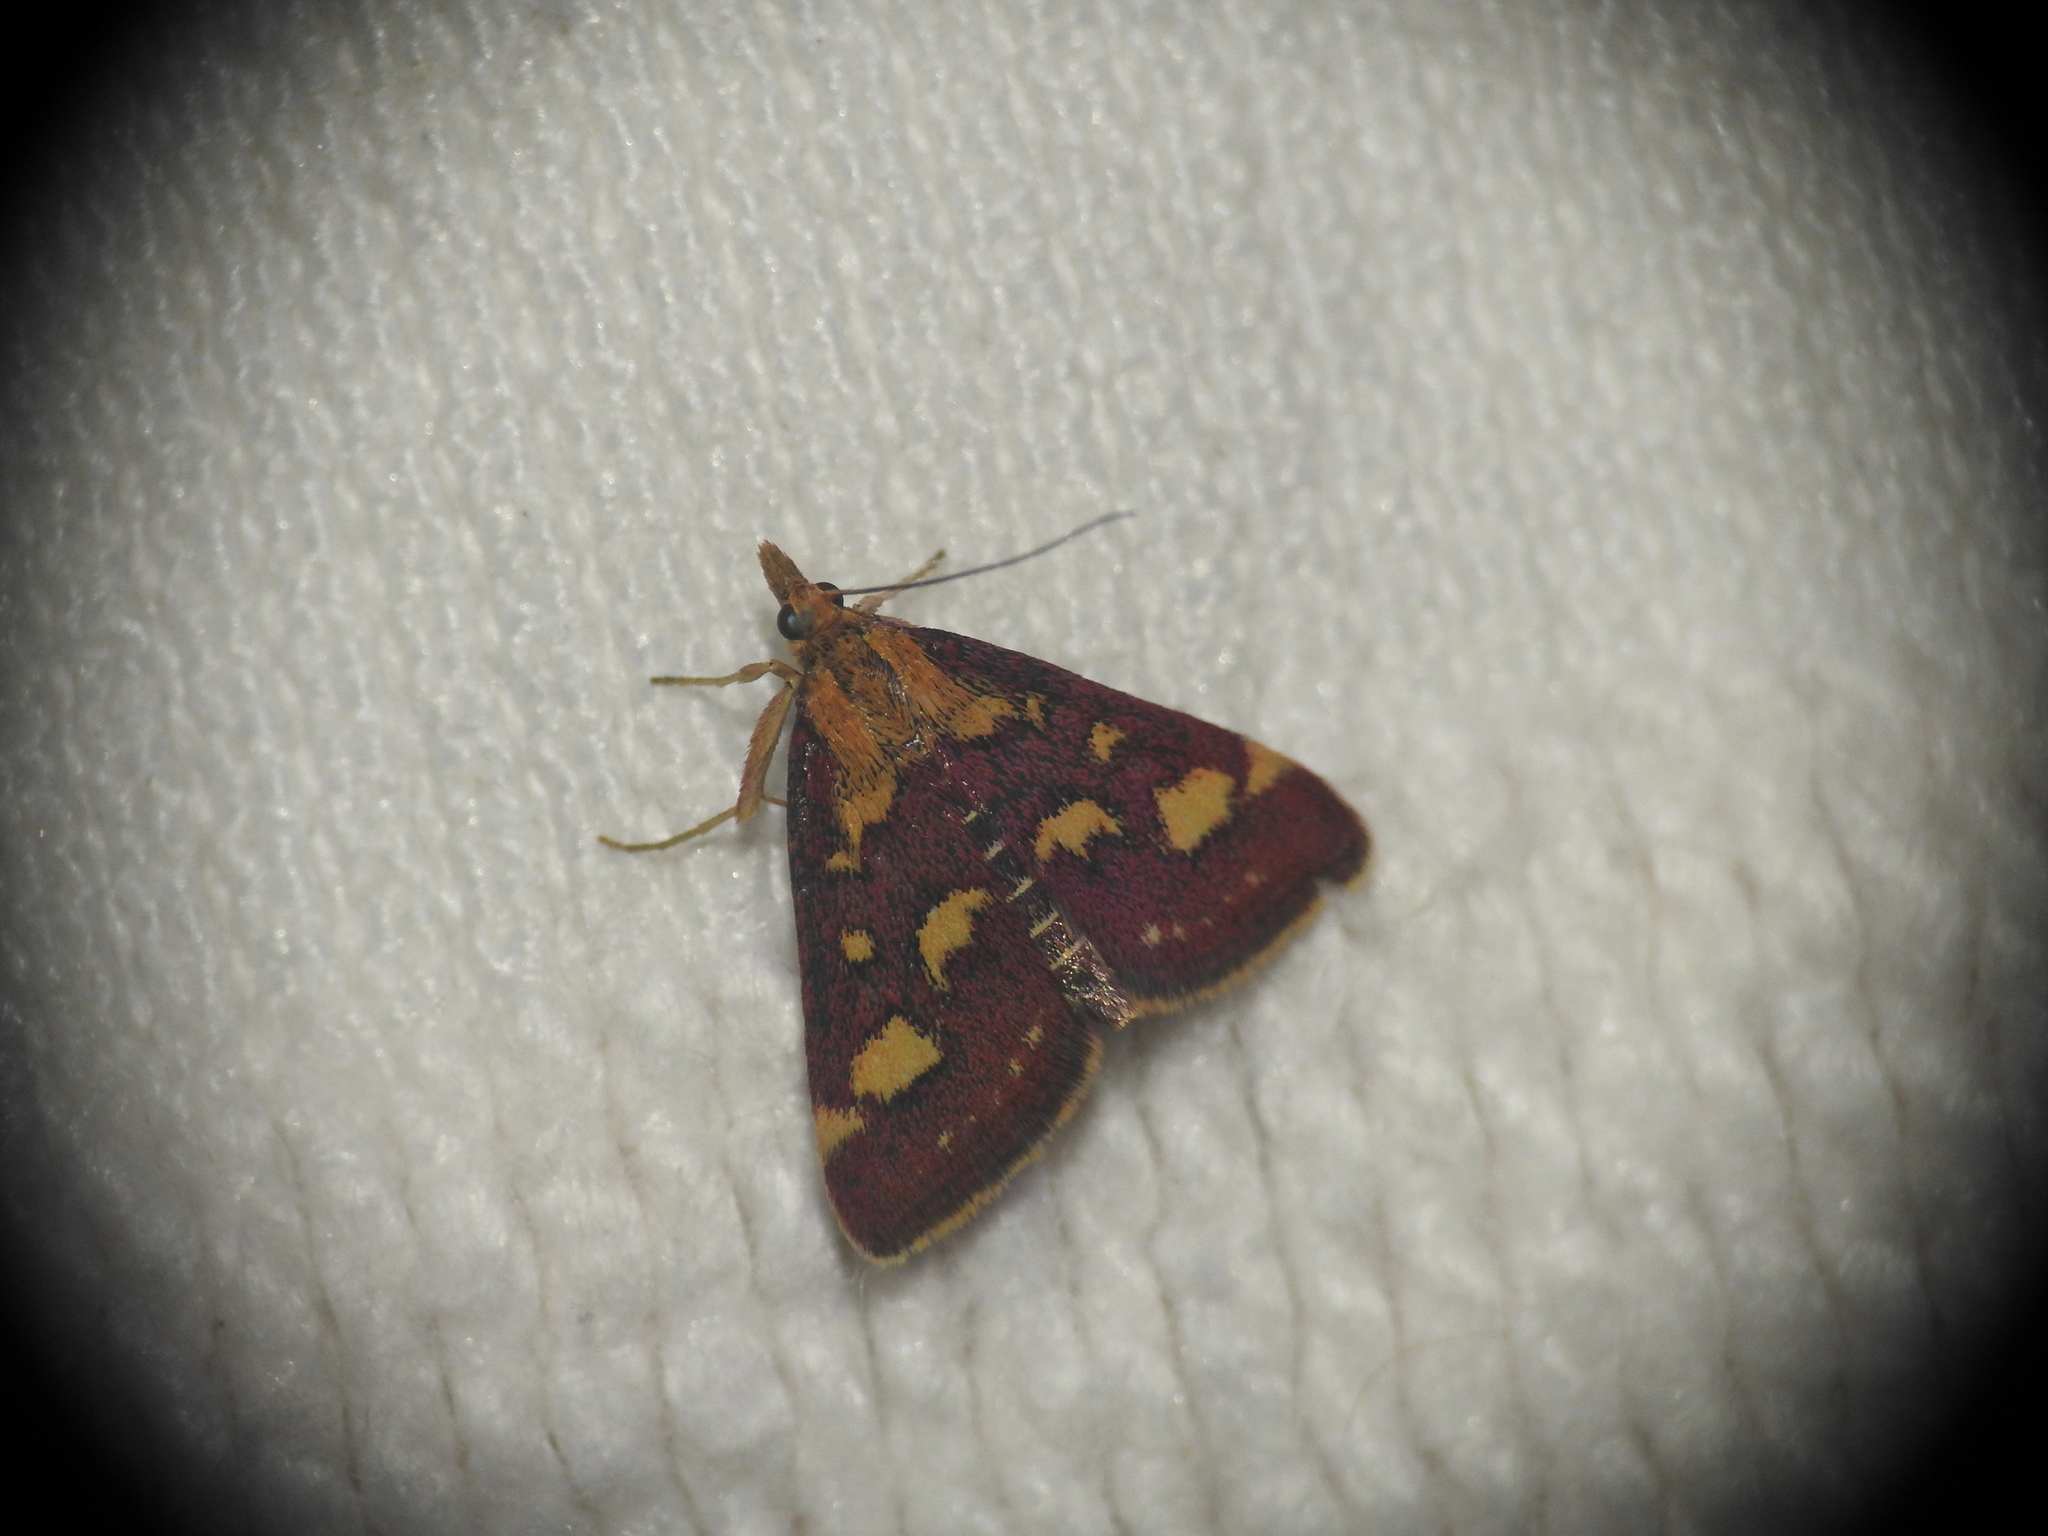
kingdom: Animalia
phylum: Arthropoda
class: Insecta
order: Lepidoptera
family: Crambidae
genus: Pyrausta
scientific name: Pyrausta purpuralis
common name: Common purple & gold
